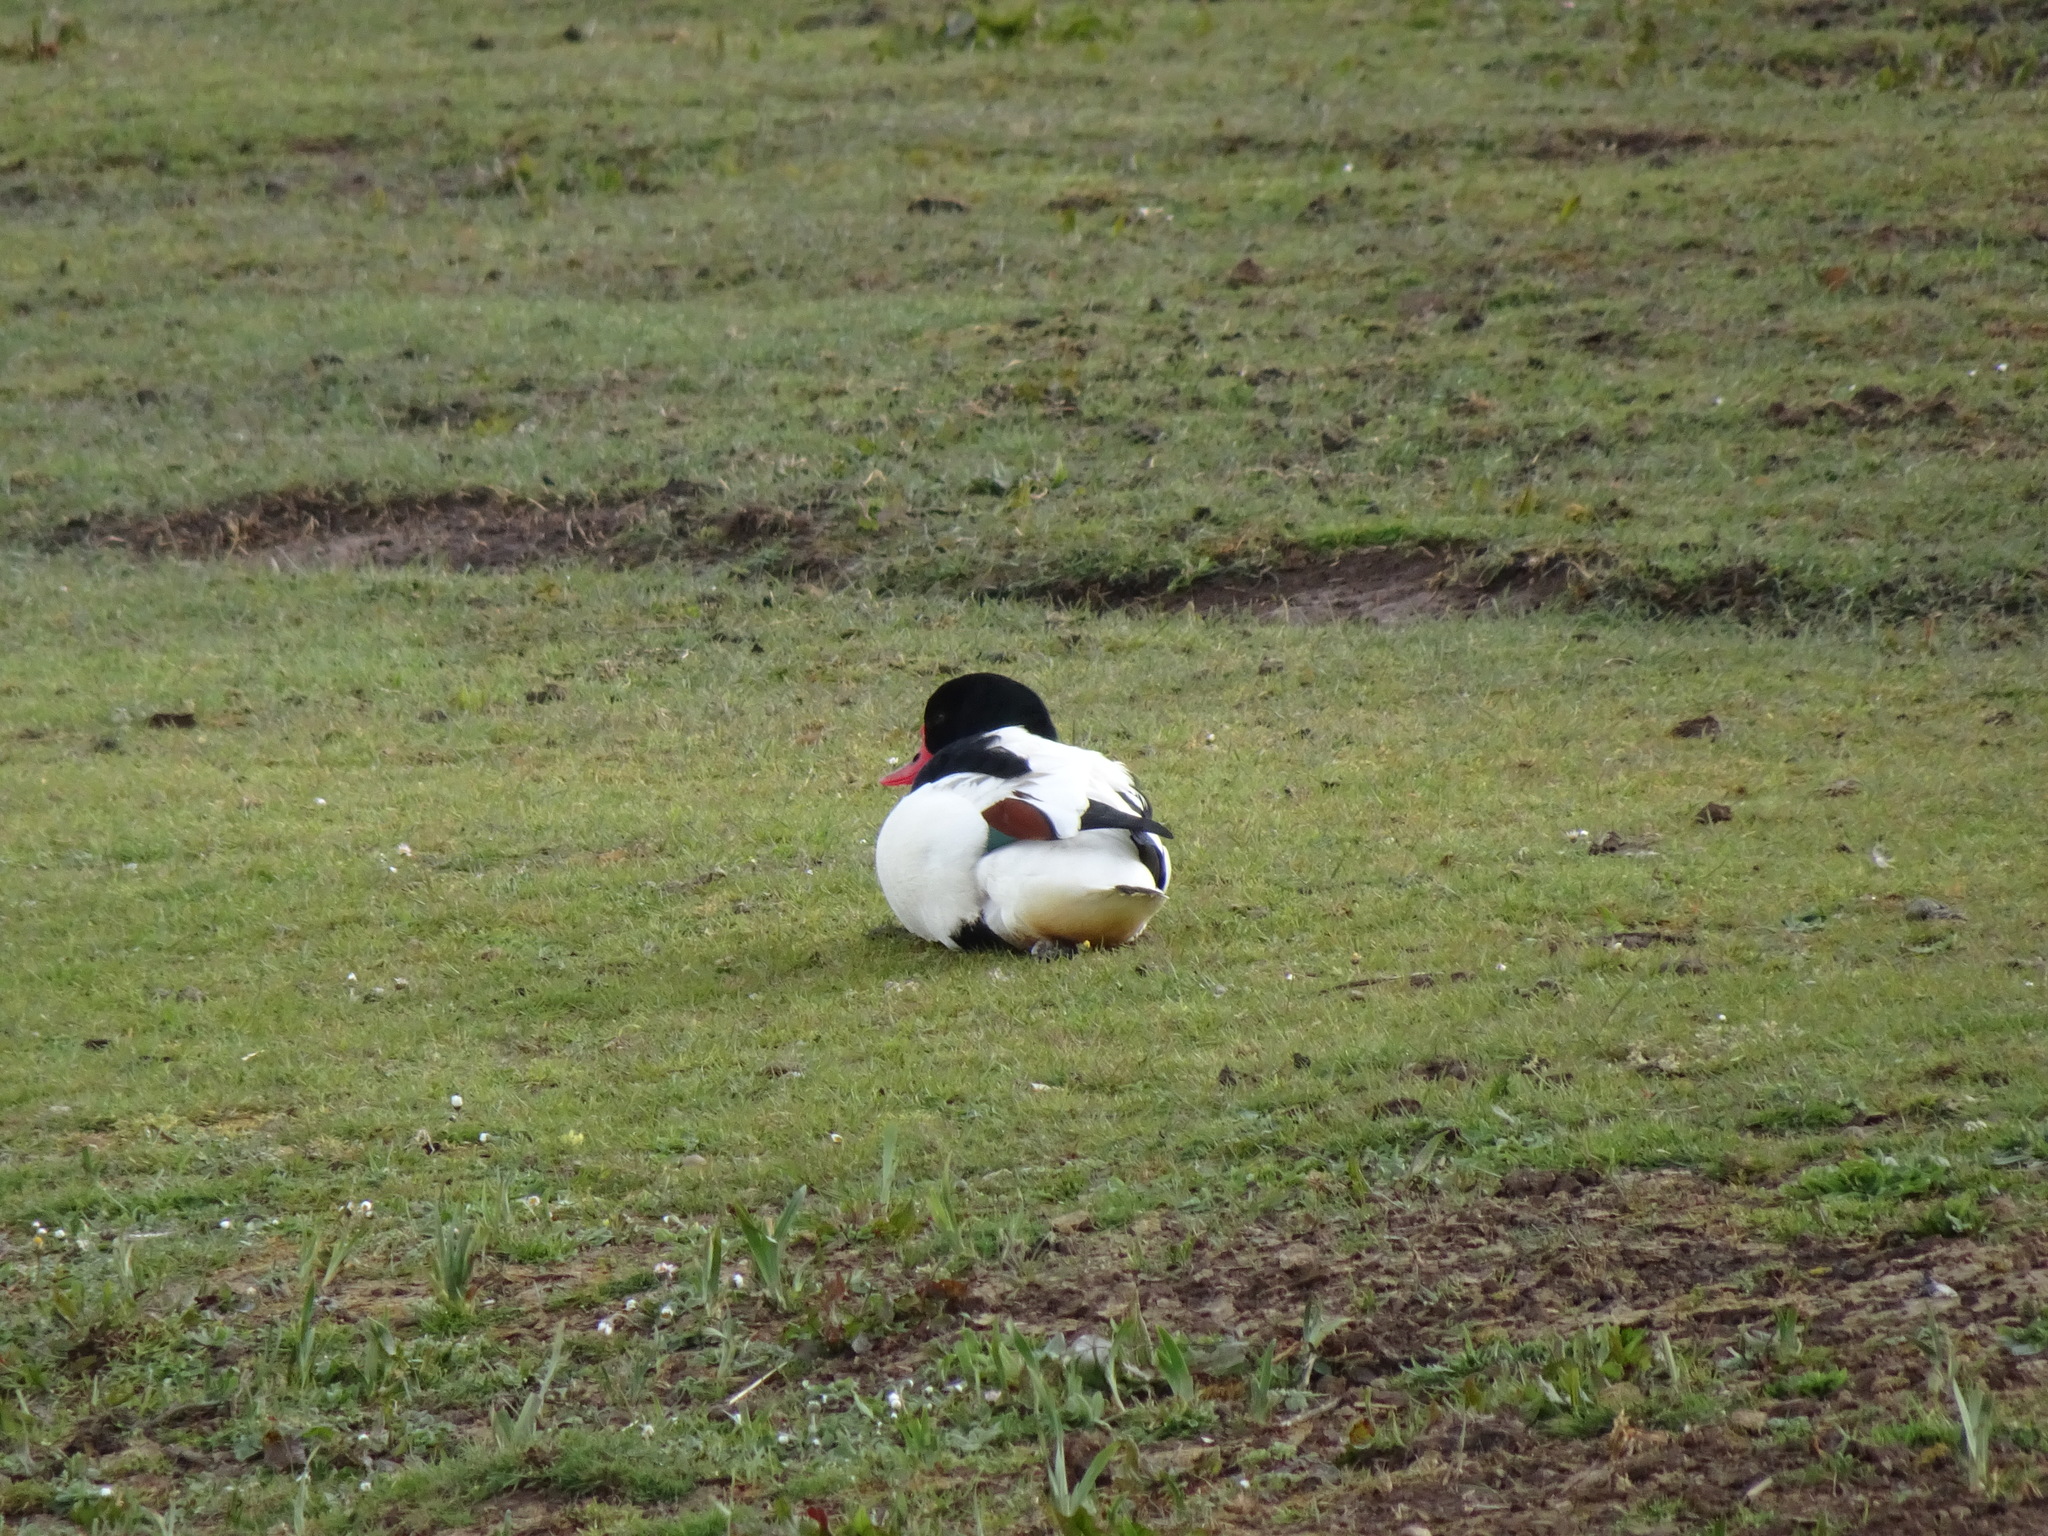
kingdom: Animalia
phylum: Chordata
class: Aves
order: Anseriformes
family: Anatidae
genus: Tadorna
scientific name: Tadorna tadorna
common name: Common shelduck
